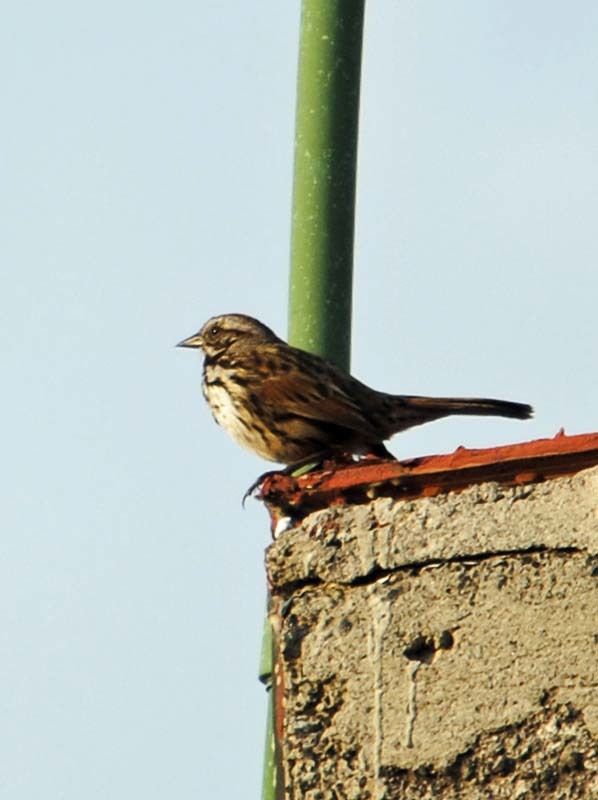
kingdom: Animalia
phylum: Chordata
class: Aves
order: Passeriformes
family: Passerellidae
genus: Melospiza
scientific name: Melospiza melodia
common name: Song sparrow
